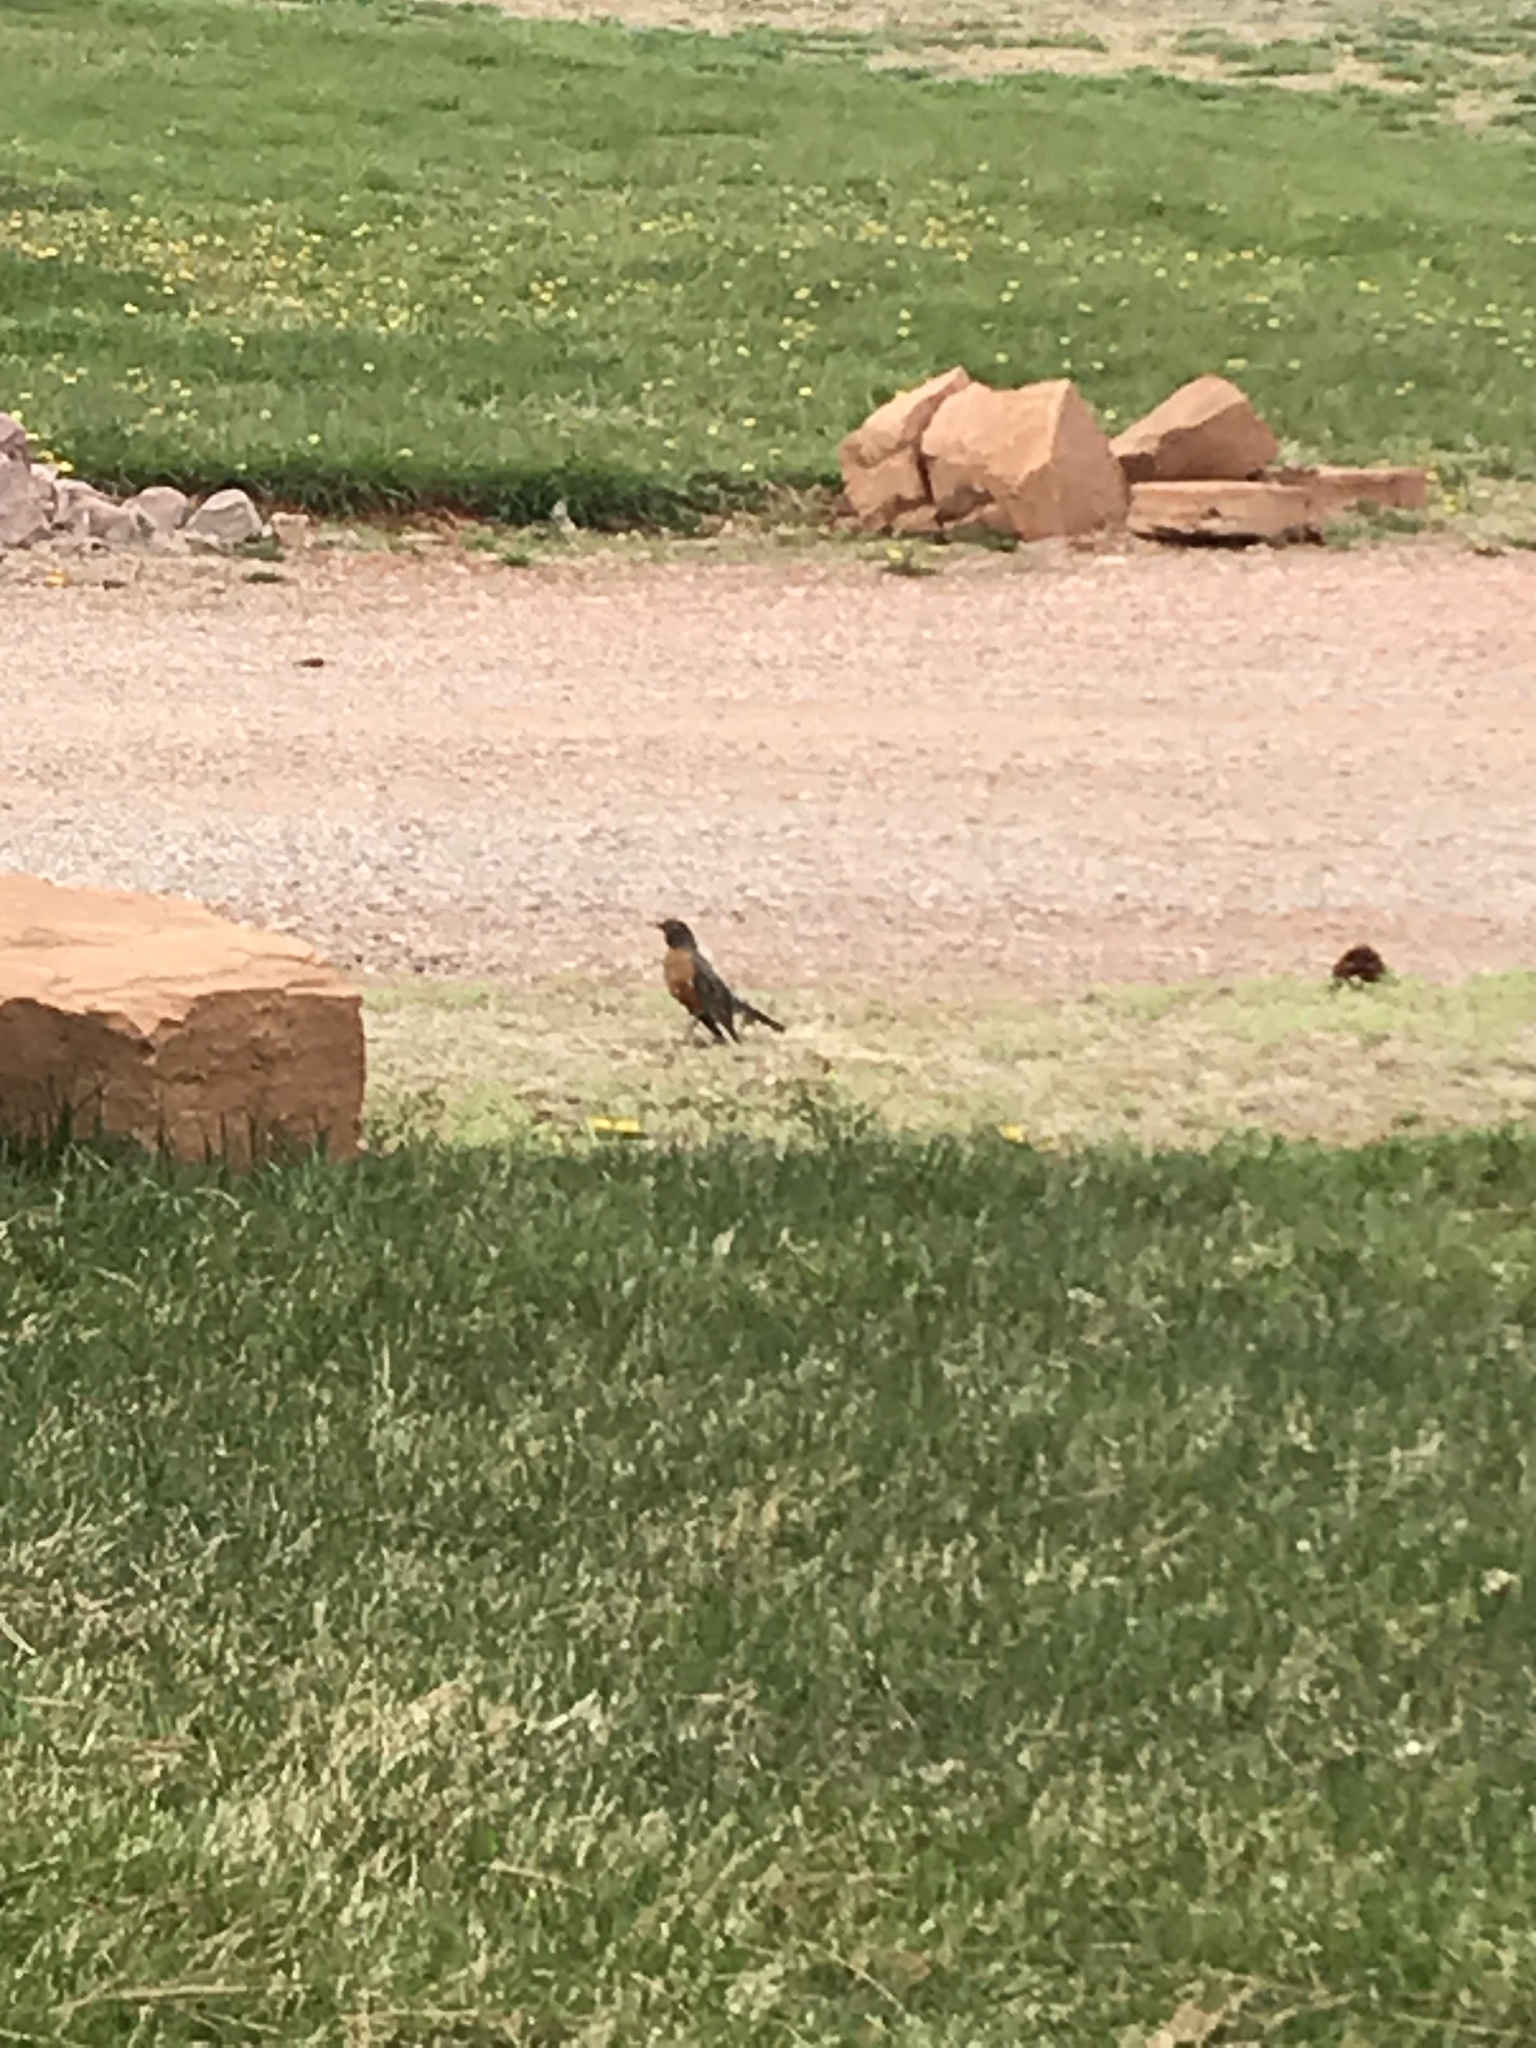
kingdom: Animalia
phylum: Chordata
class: Aves
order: Passeriformes
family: Turdidae
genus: Turdus
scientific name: Turdus migratorius
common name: American robin
